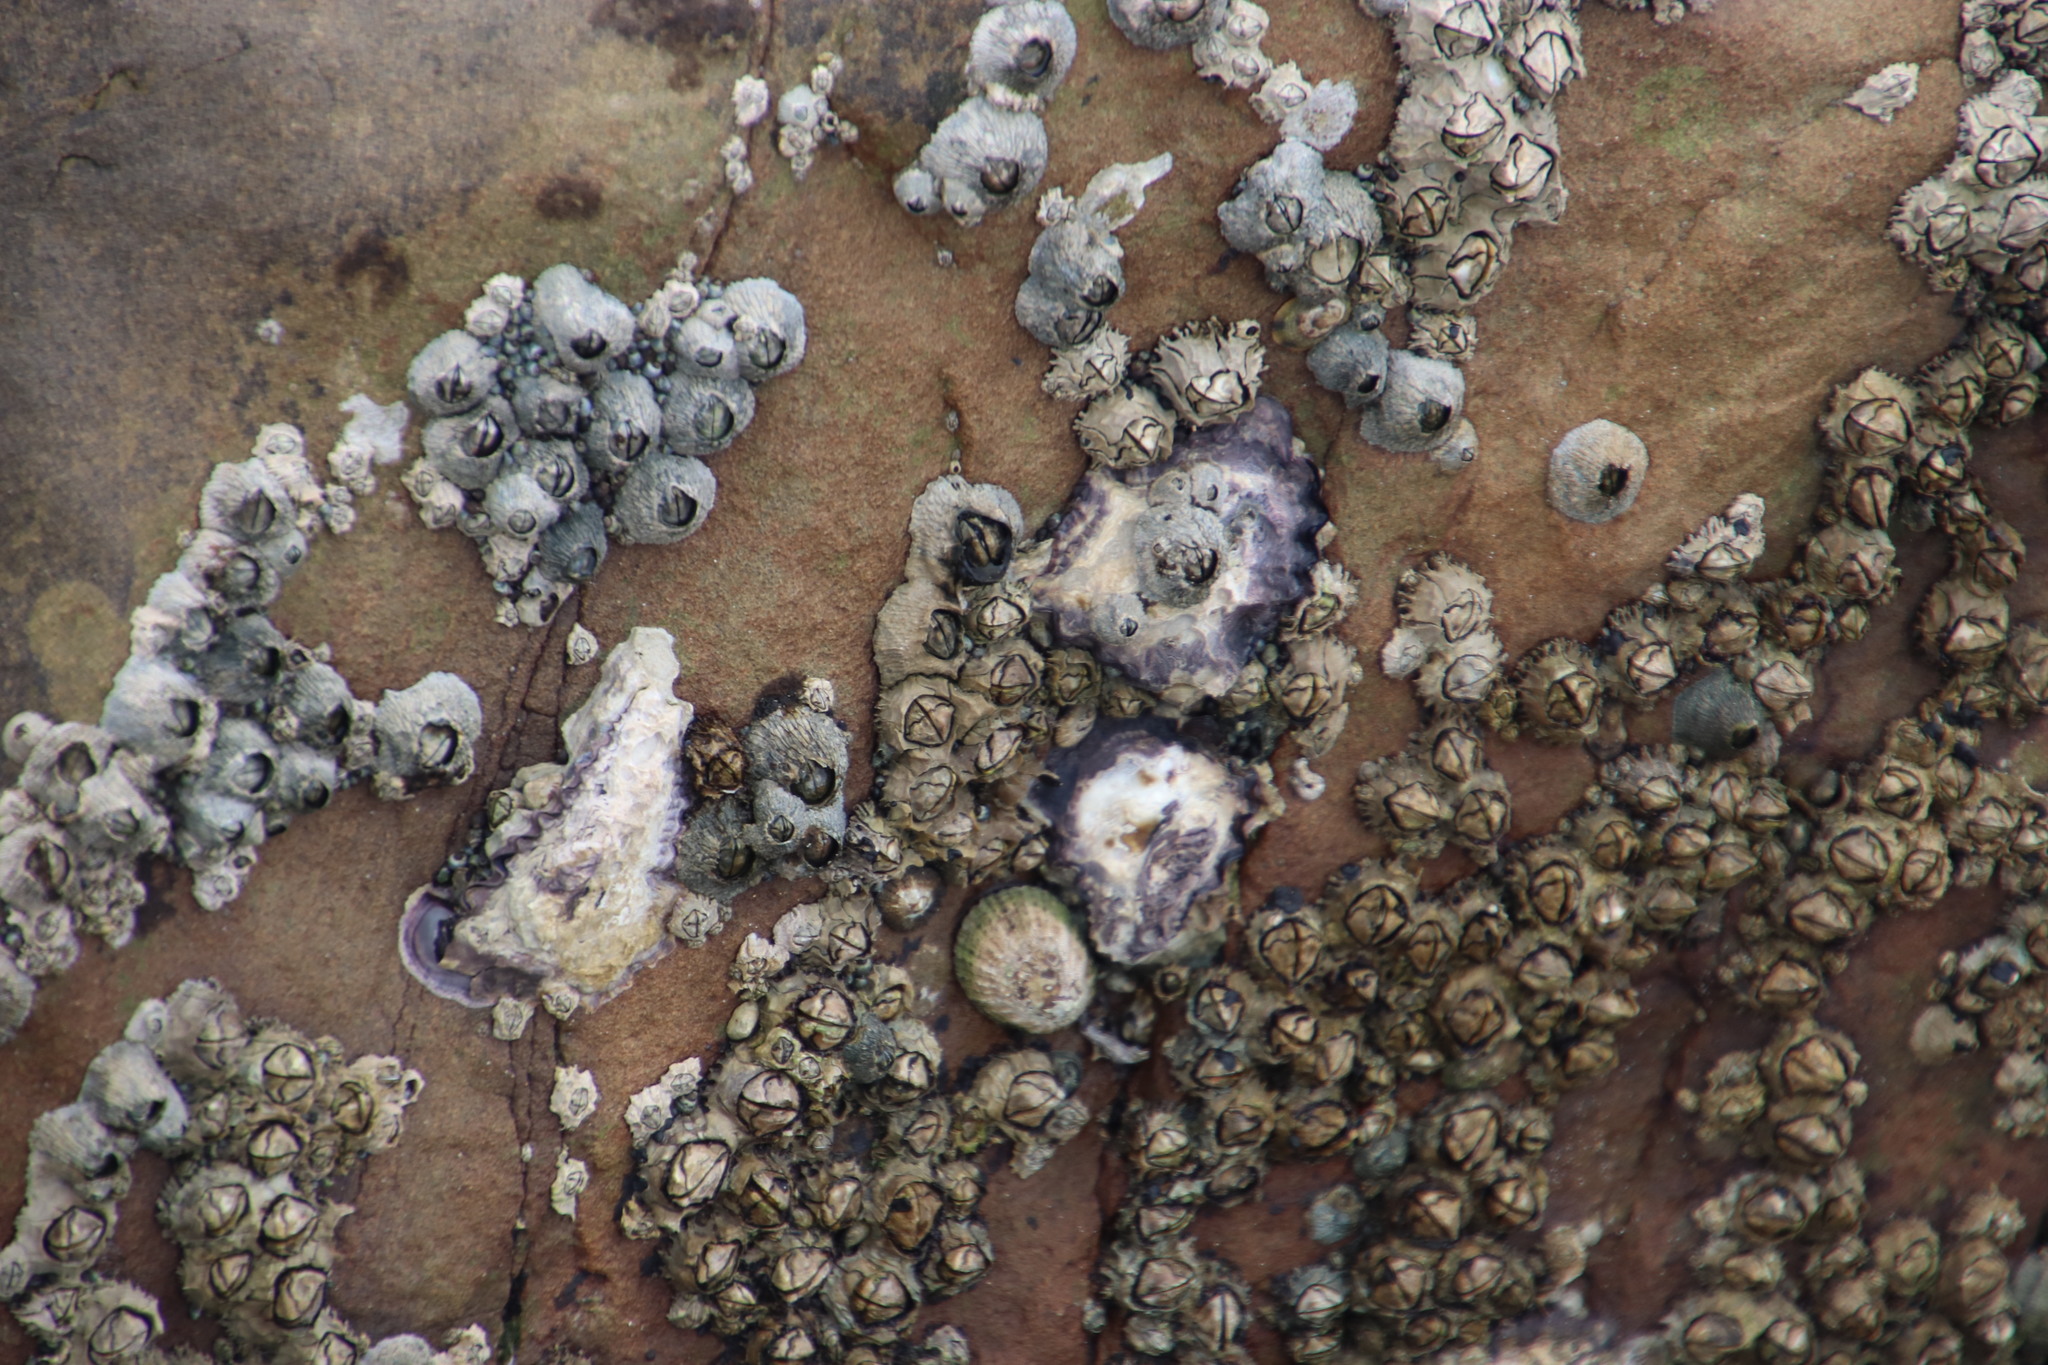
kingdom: Animalia
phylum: Arthropoda
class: Maxillopoda
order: Sessilia
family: Tetraclitidae
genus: Tetraclita
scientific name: Tetraclita serrata
